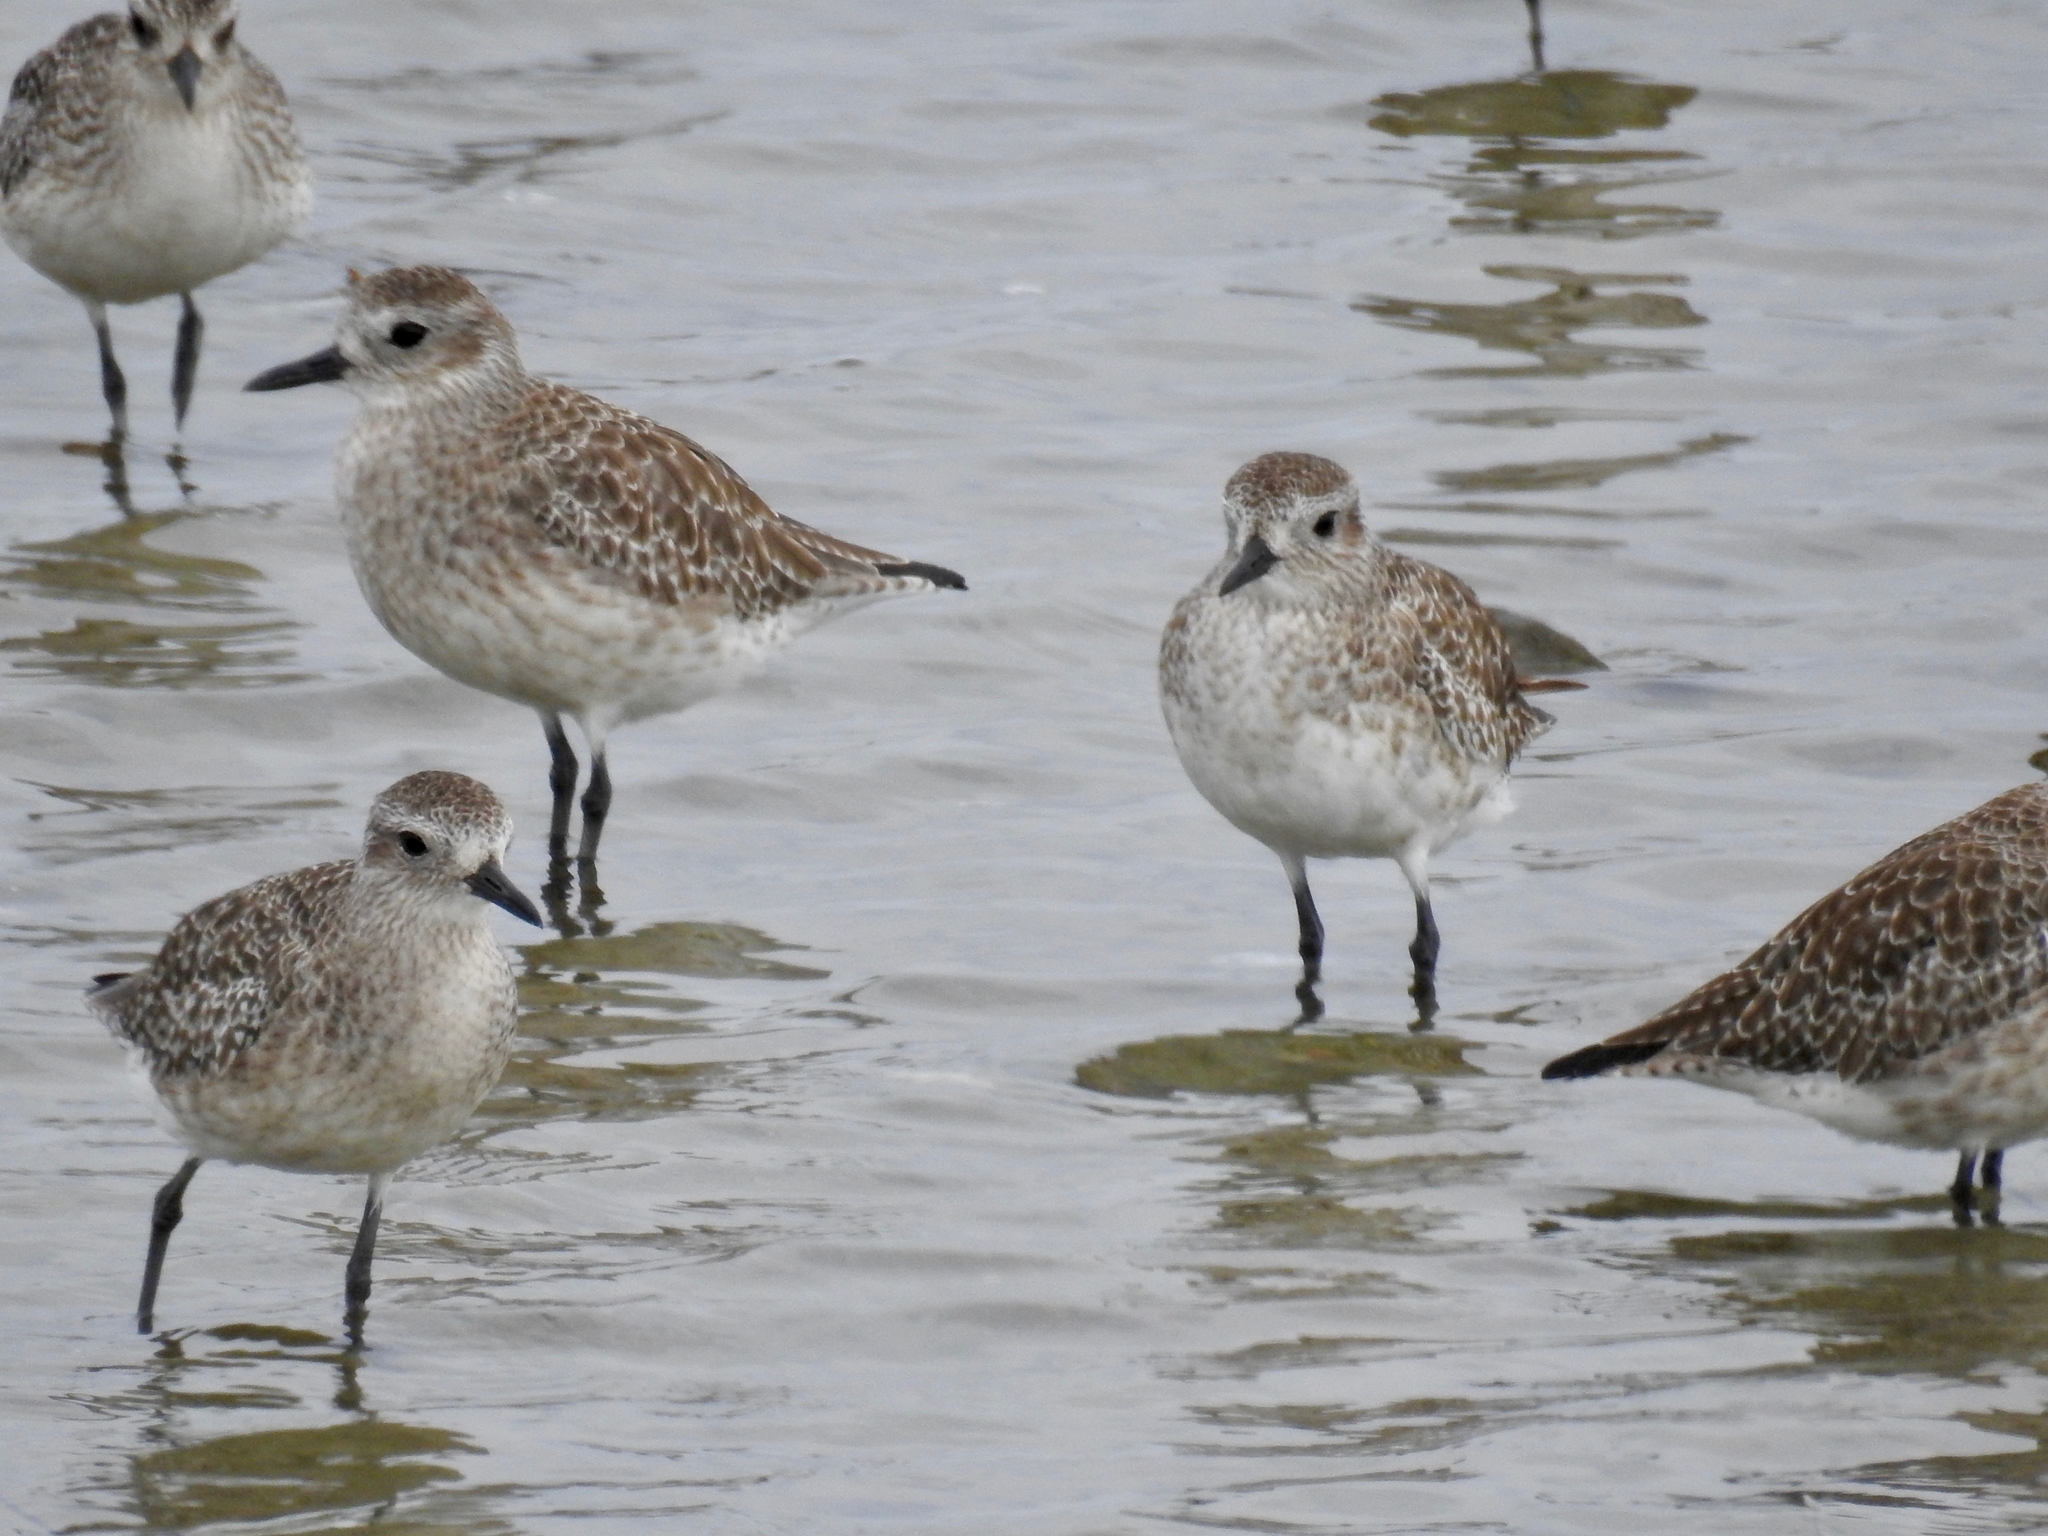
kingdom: Animalia
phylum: Chordata
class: Aves
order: Charadriiformes
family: Charadriidae
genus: Pluvialis
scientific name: Pluvialis squatarola
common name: Grey plover
